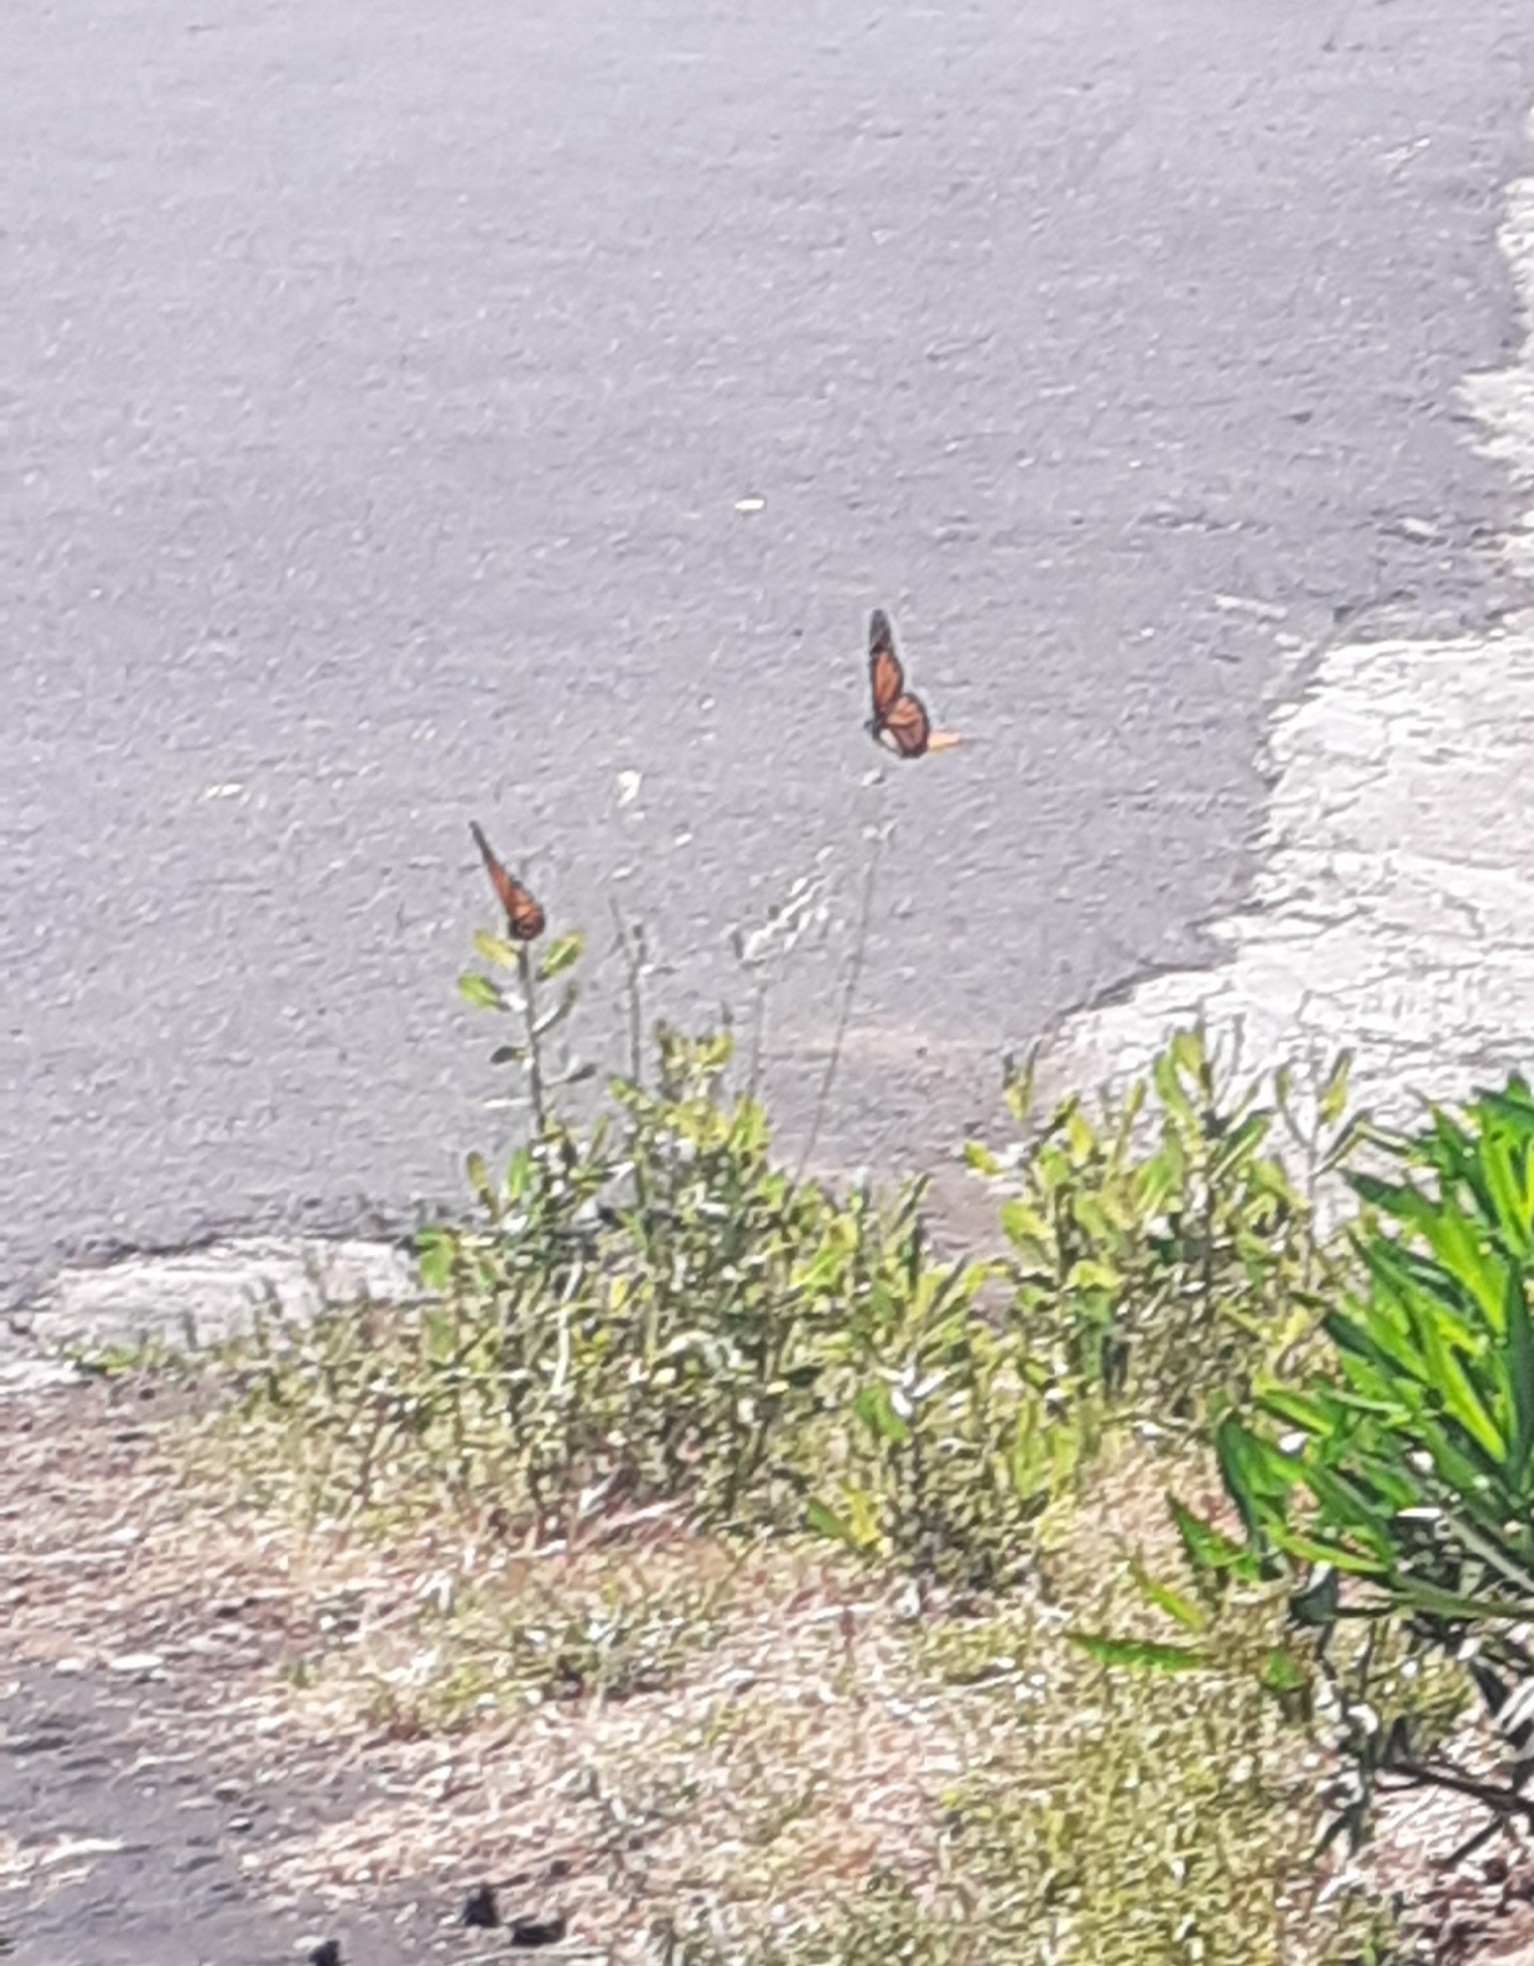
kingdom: Animalia
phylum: Arthropoda
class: Insecta
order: Lepidoptera
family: Nymphalidae
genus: Danaus
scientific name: Danaus plexippus
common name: Monarch
